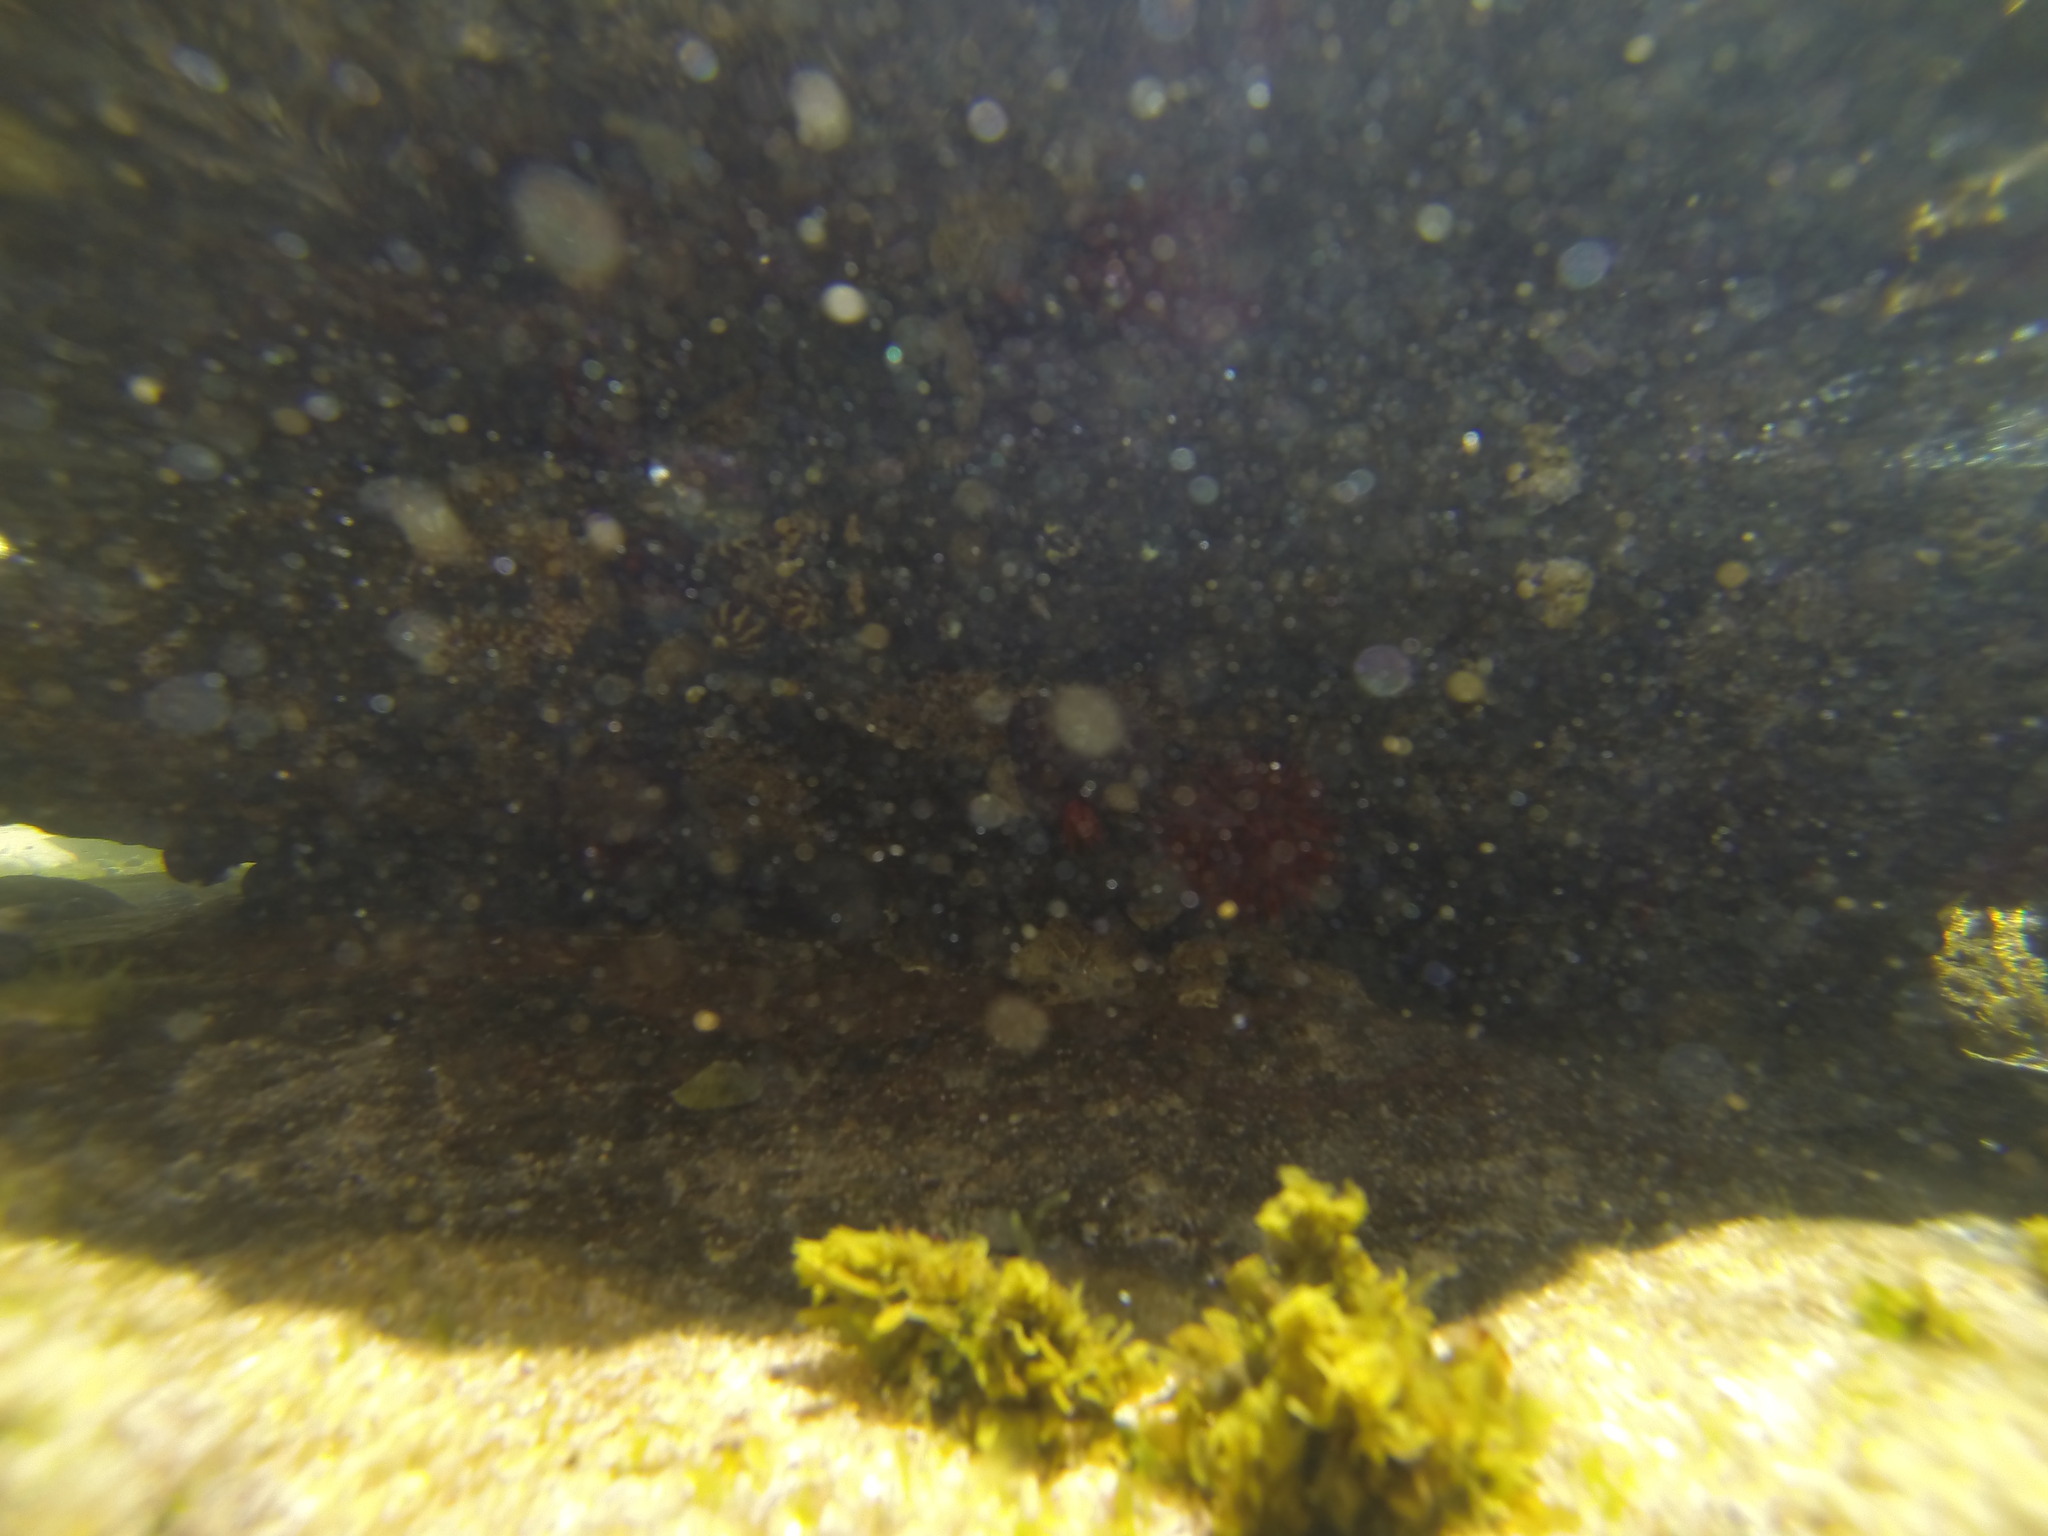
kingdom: Animalia
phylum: Cnidaria
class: Anthozoa
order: Actiniaria
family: Actiniidae
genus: Actinia
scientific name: Actinia tenebrosa
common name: Waratah anemone
